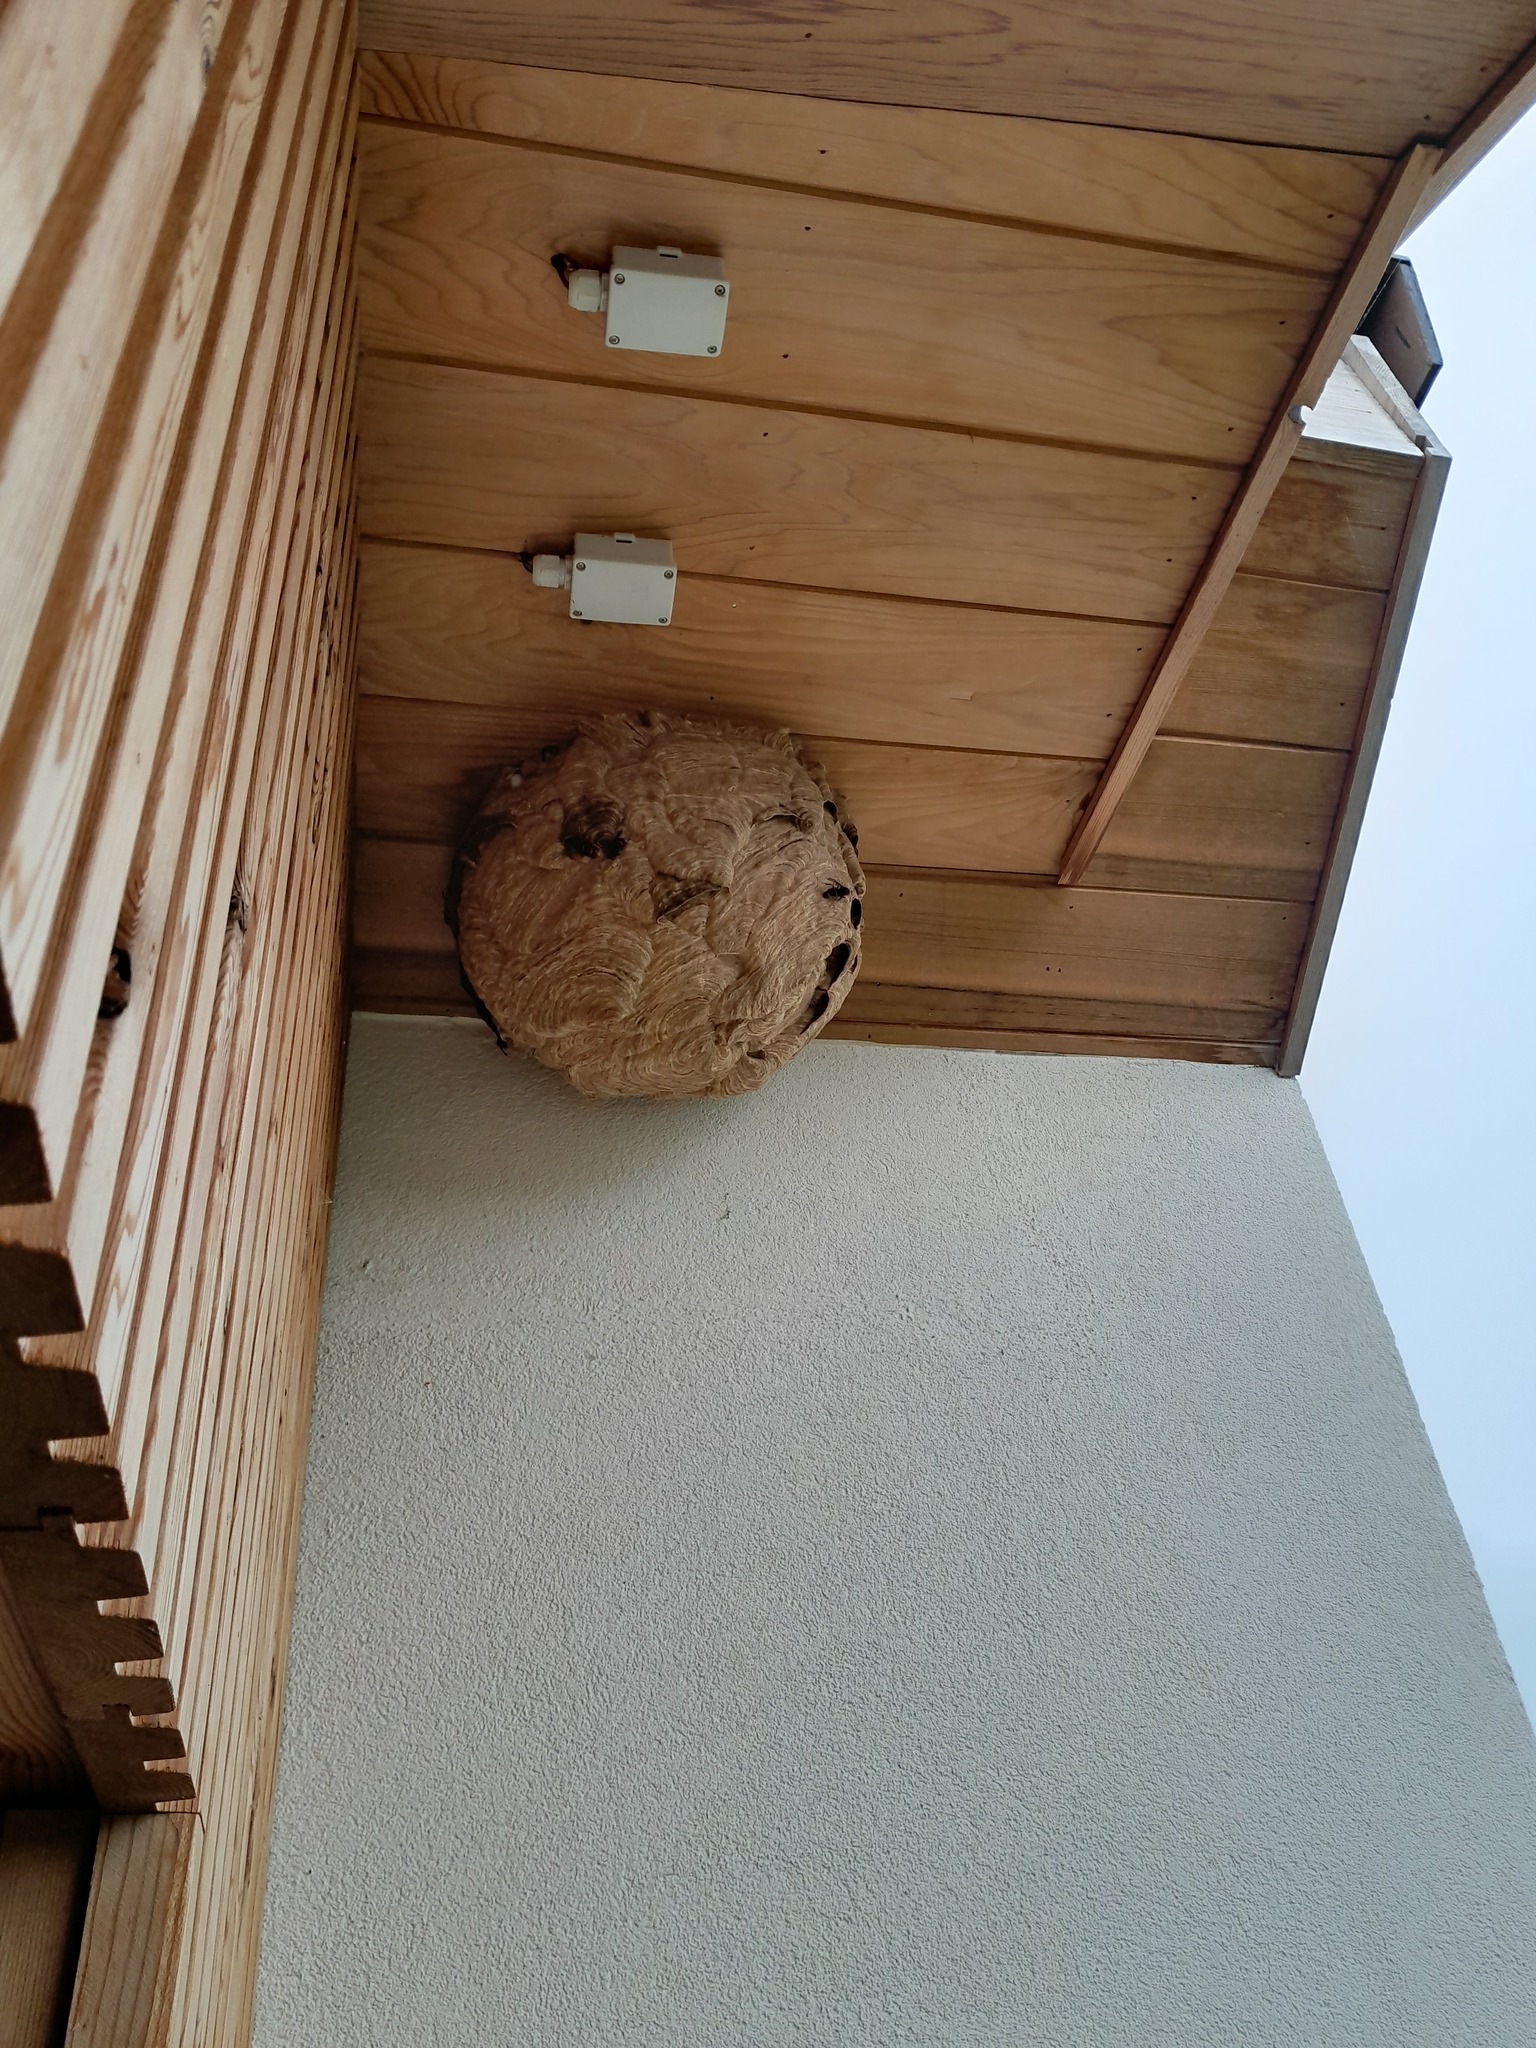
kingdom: Animalia
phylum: Arthropoda
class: Insecta
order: Hymenoptera
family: Vespidae
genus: Vespa
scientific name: Vespa velutina
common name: Asian hornet
